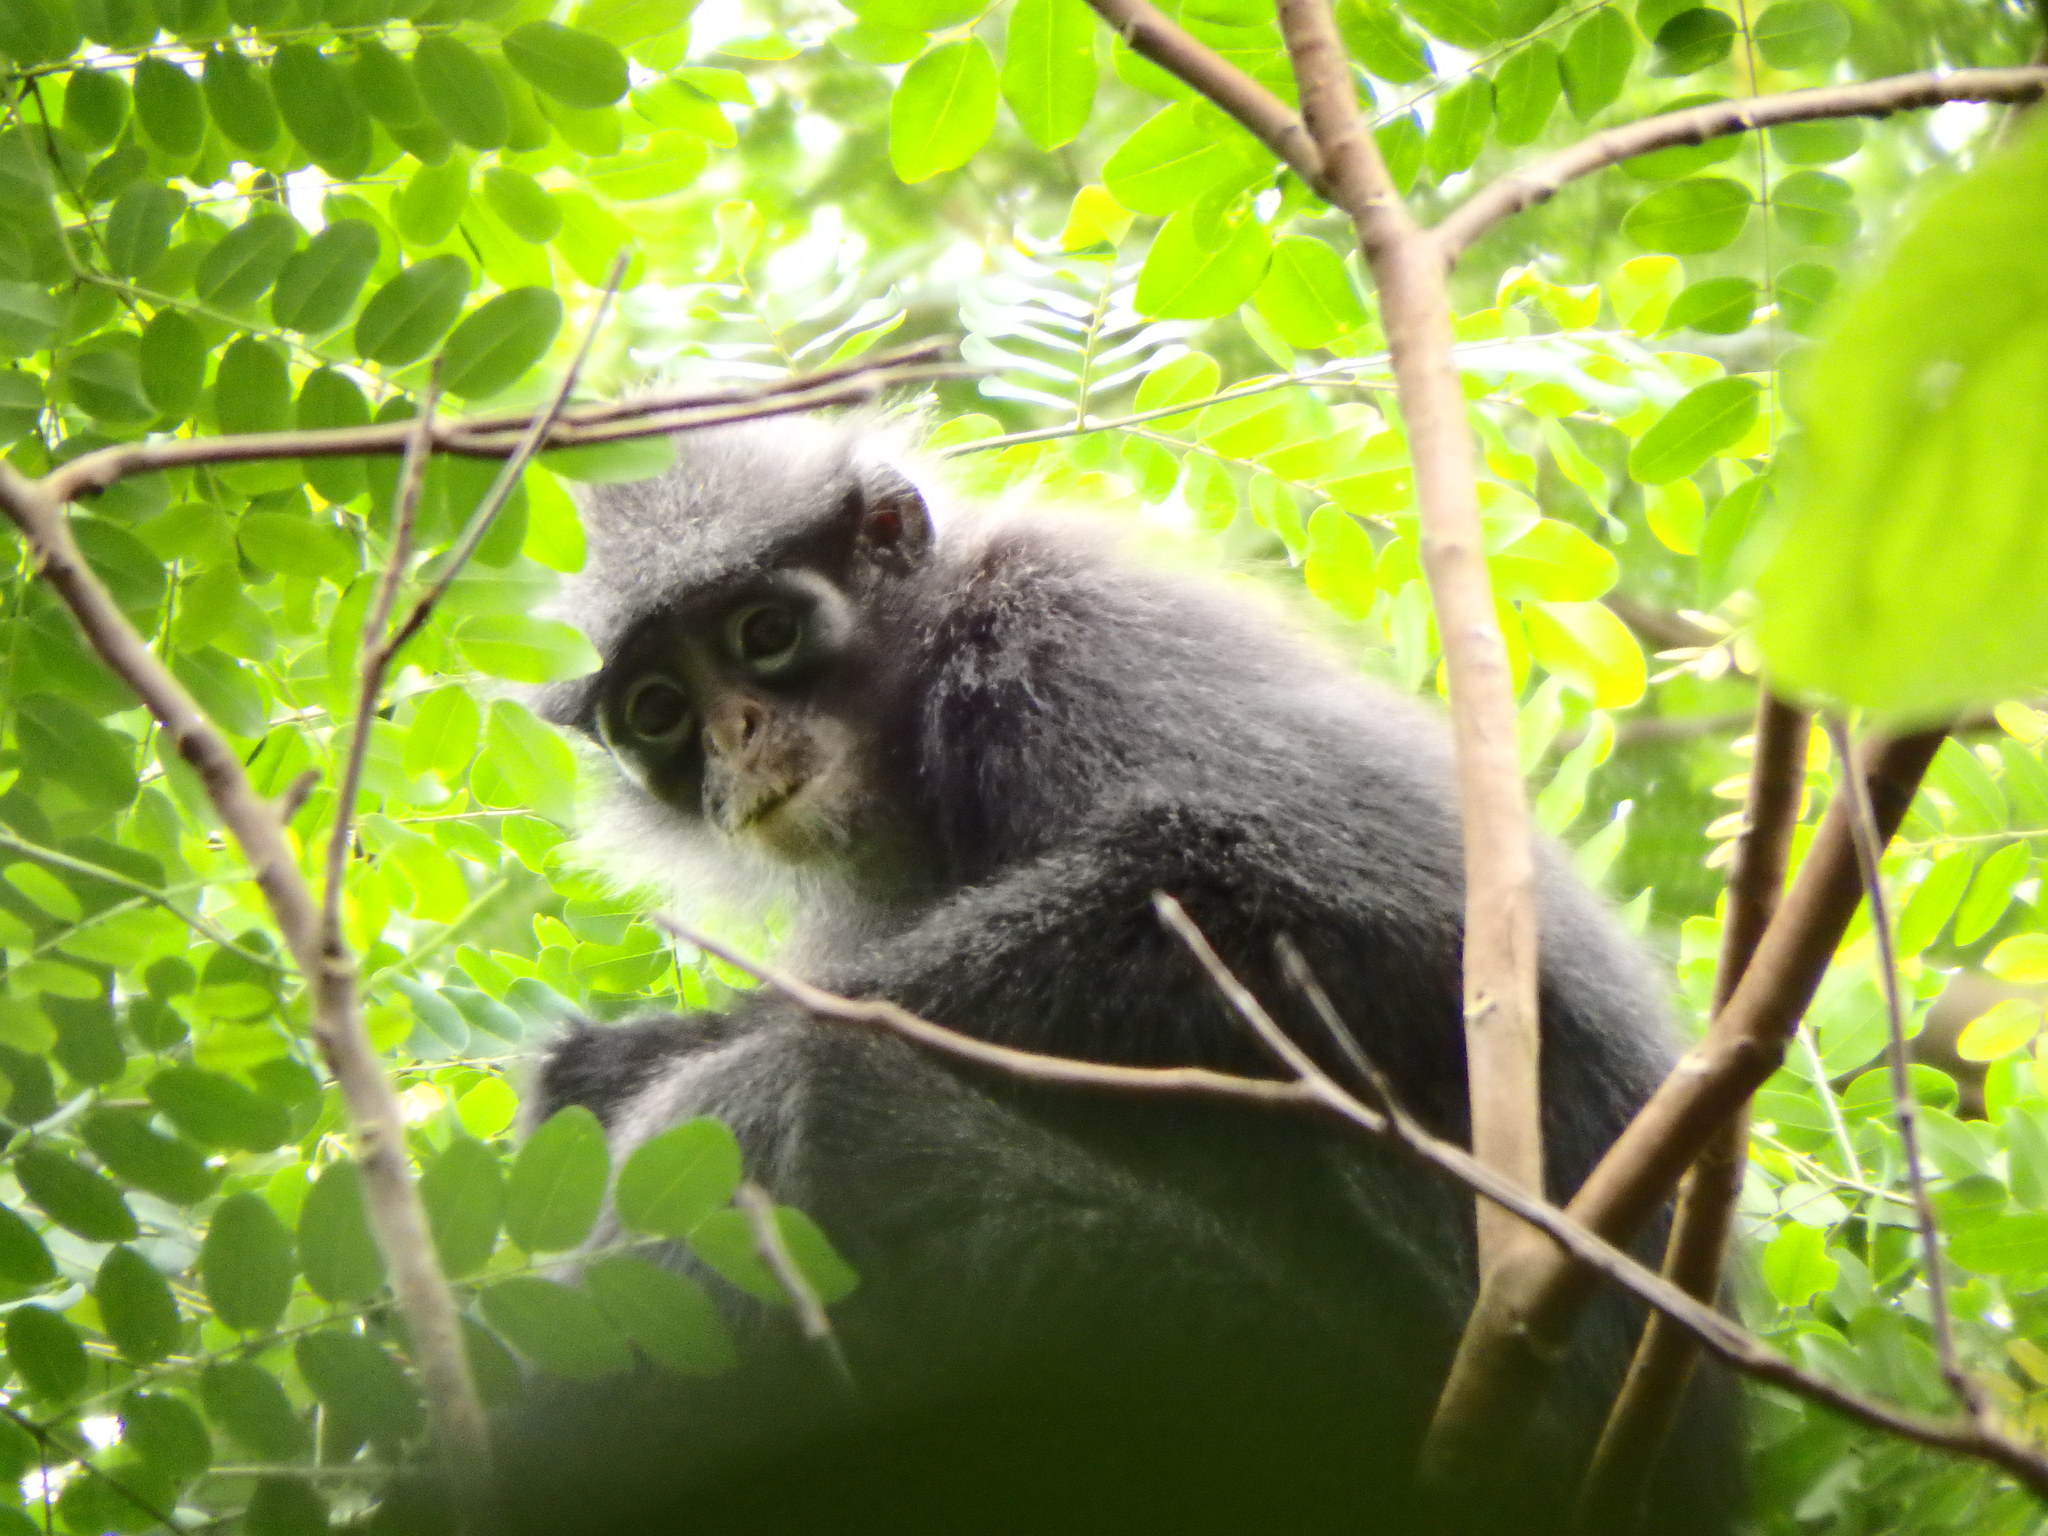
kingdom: Animalia
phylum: Chordata
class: Mammalia
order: Primates
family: Cercopithecidae
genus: Presbytis
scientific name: Presbytis femoralis
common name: Banded surili
